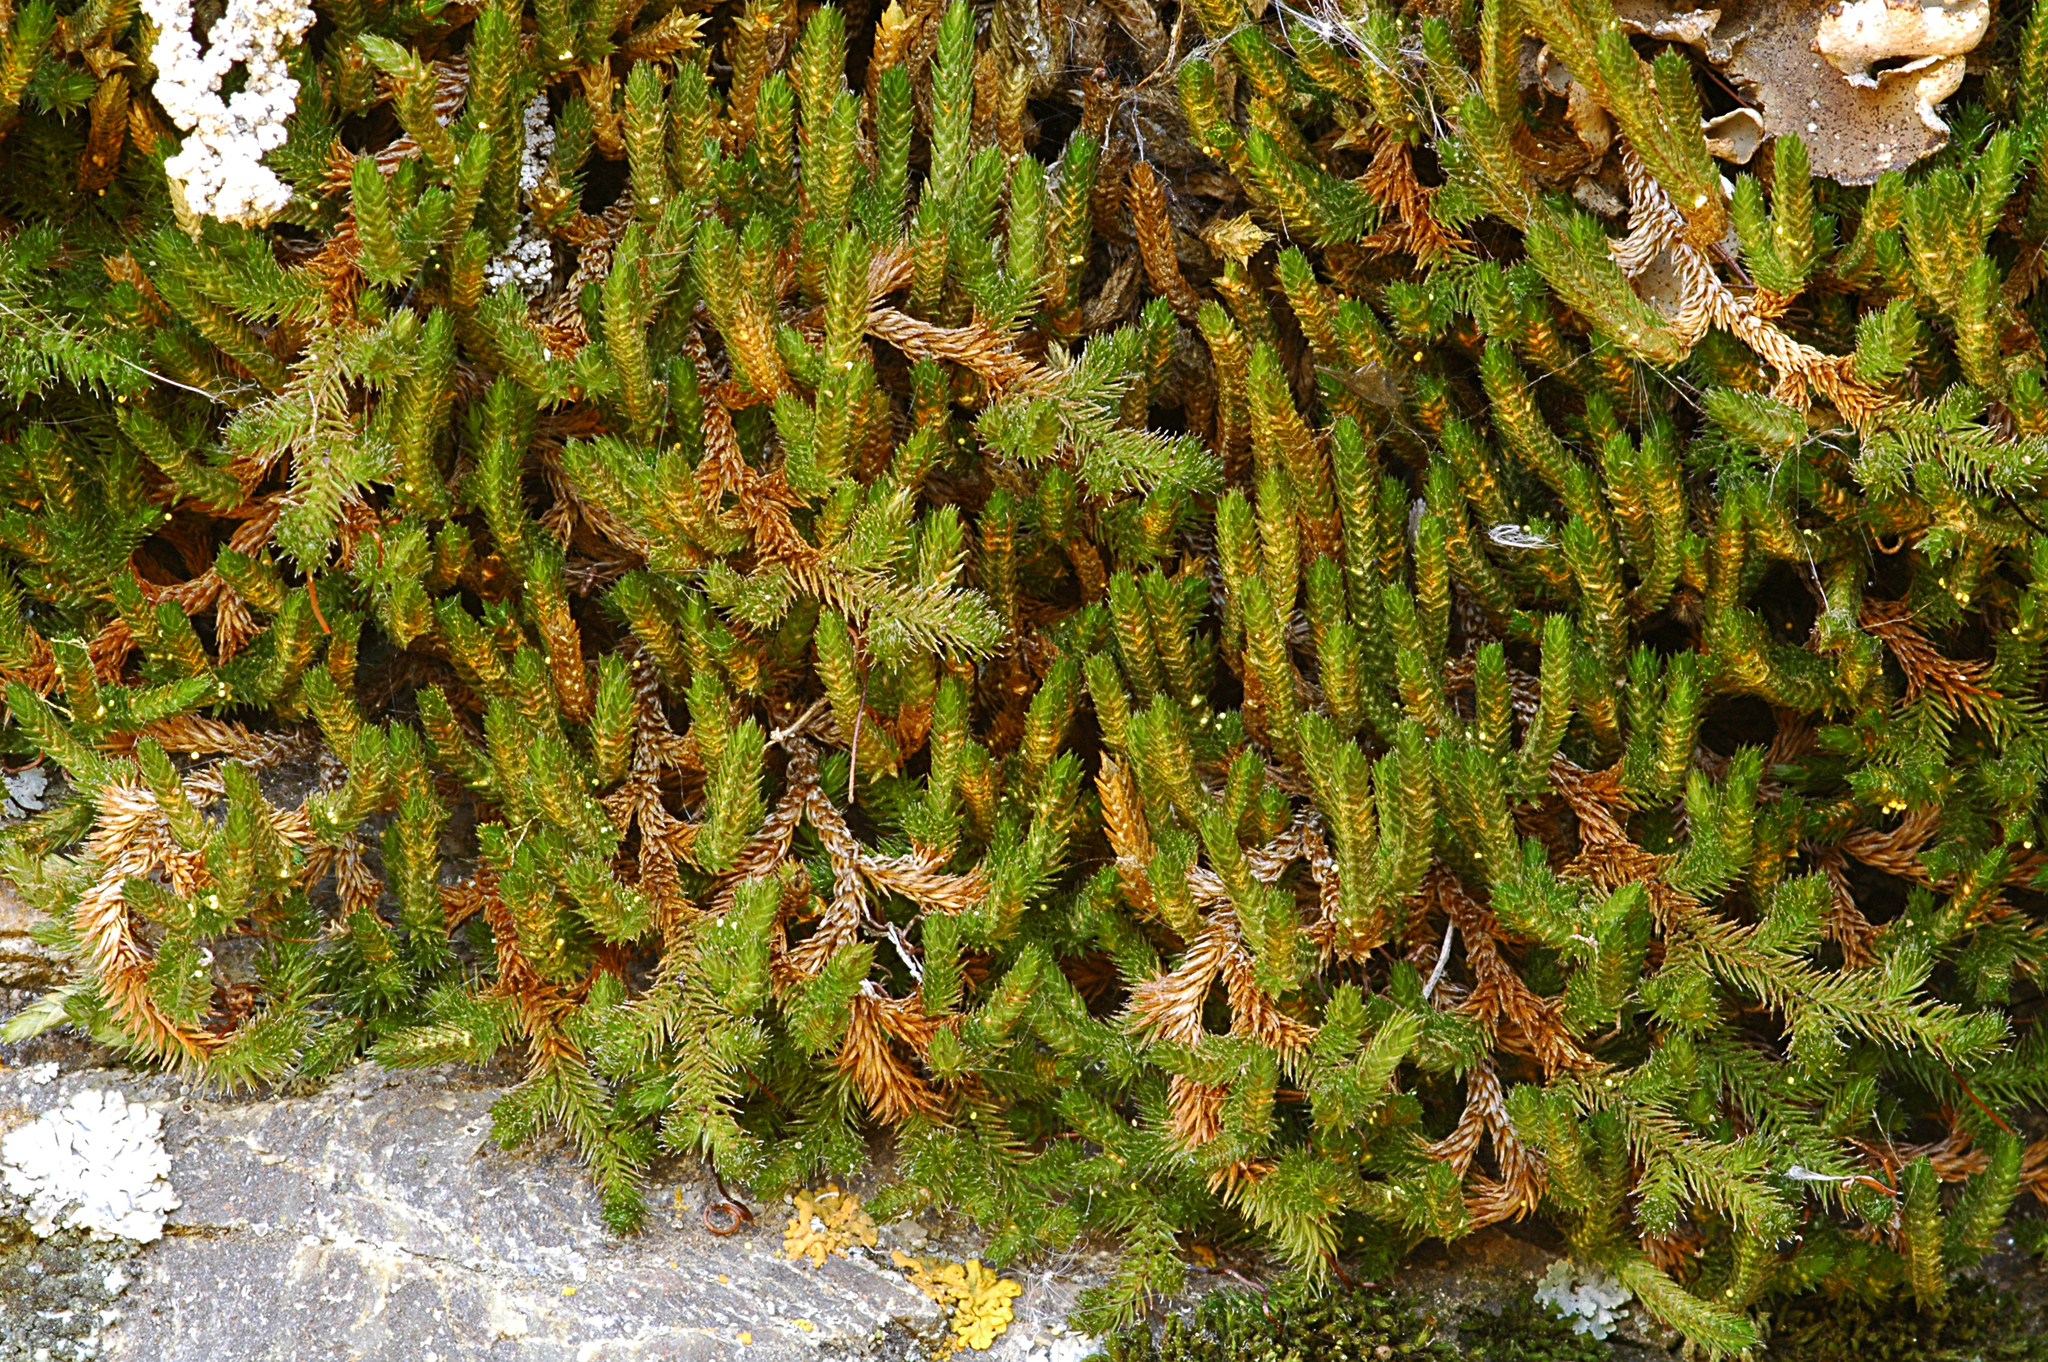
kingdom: Plantae
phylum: Tracheophyta
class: Lycopodiopsida
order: Selaginellales
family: Selaginellaceae
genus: Selaginella
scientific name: Selaginella sibirica
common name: Siberian spikemoss
